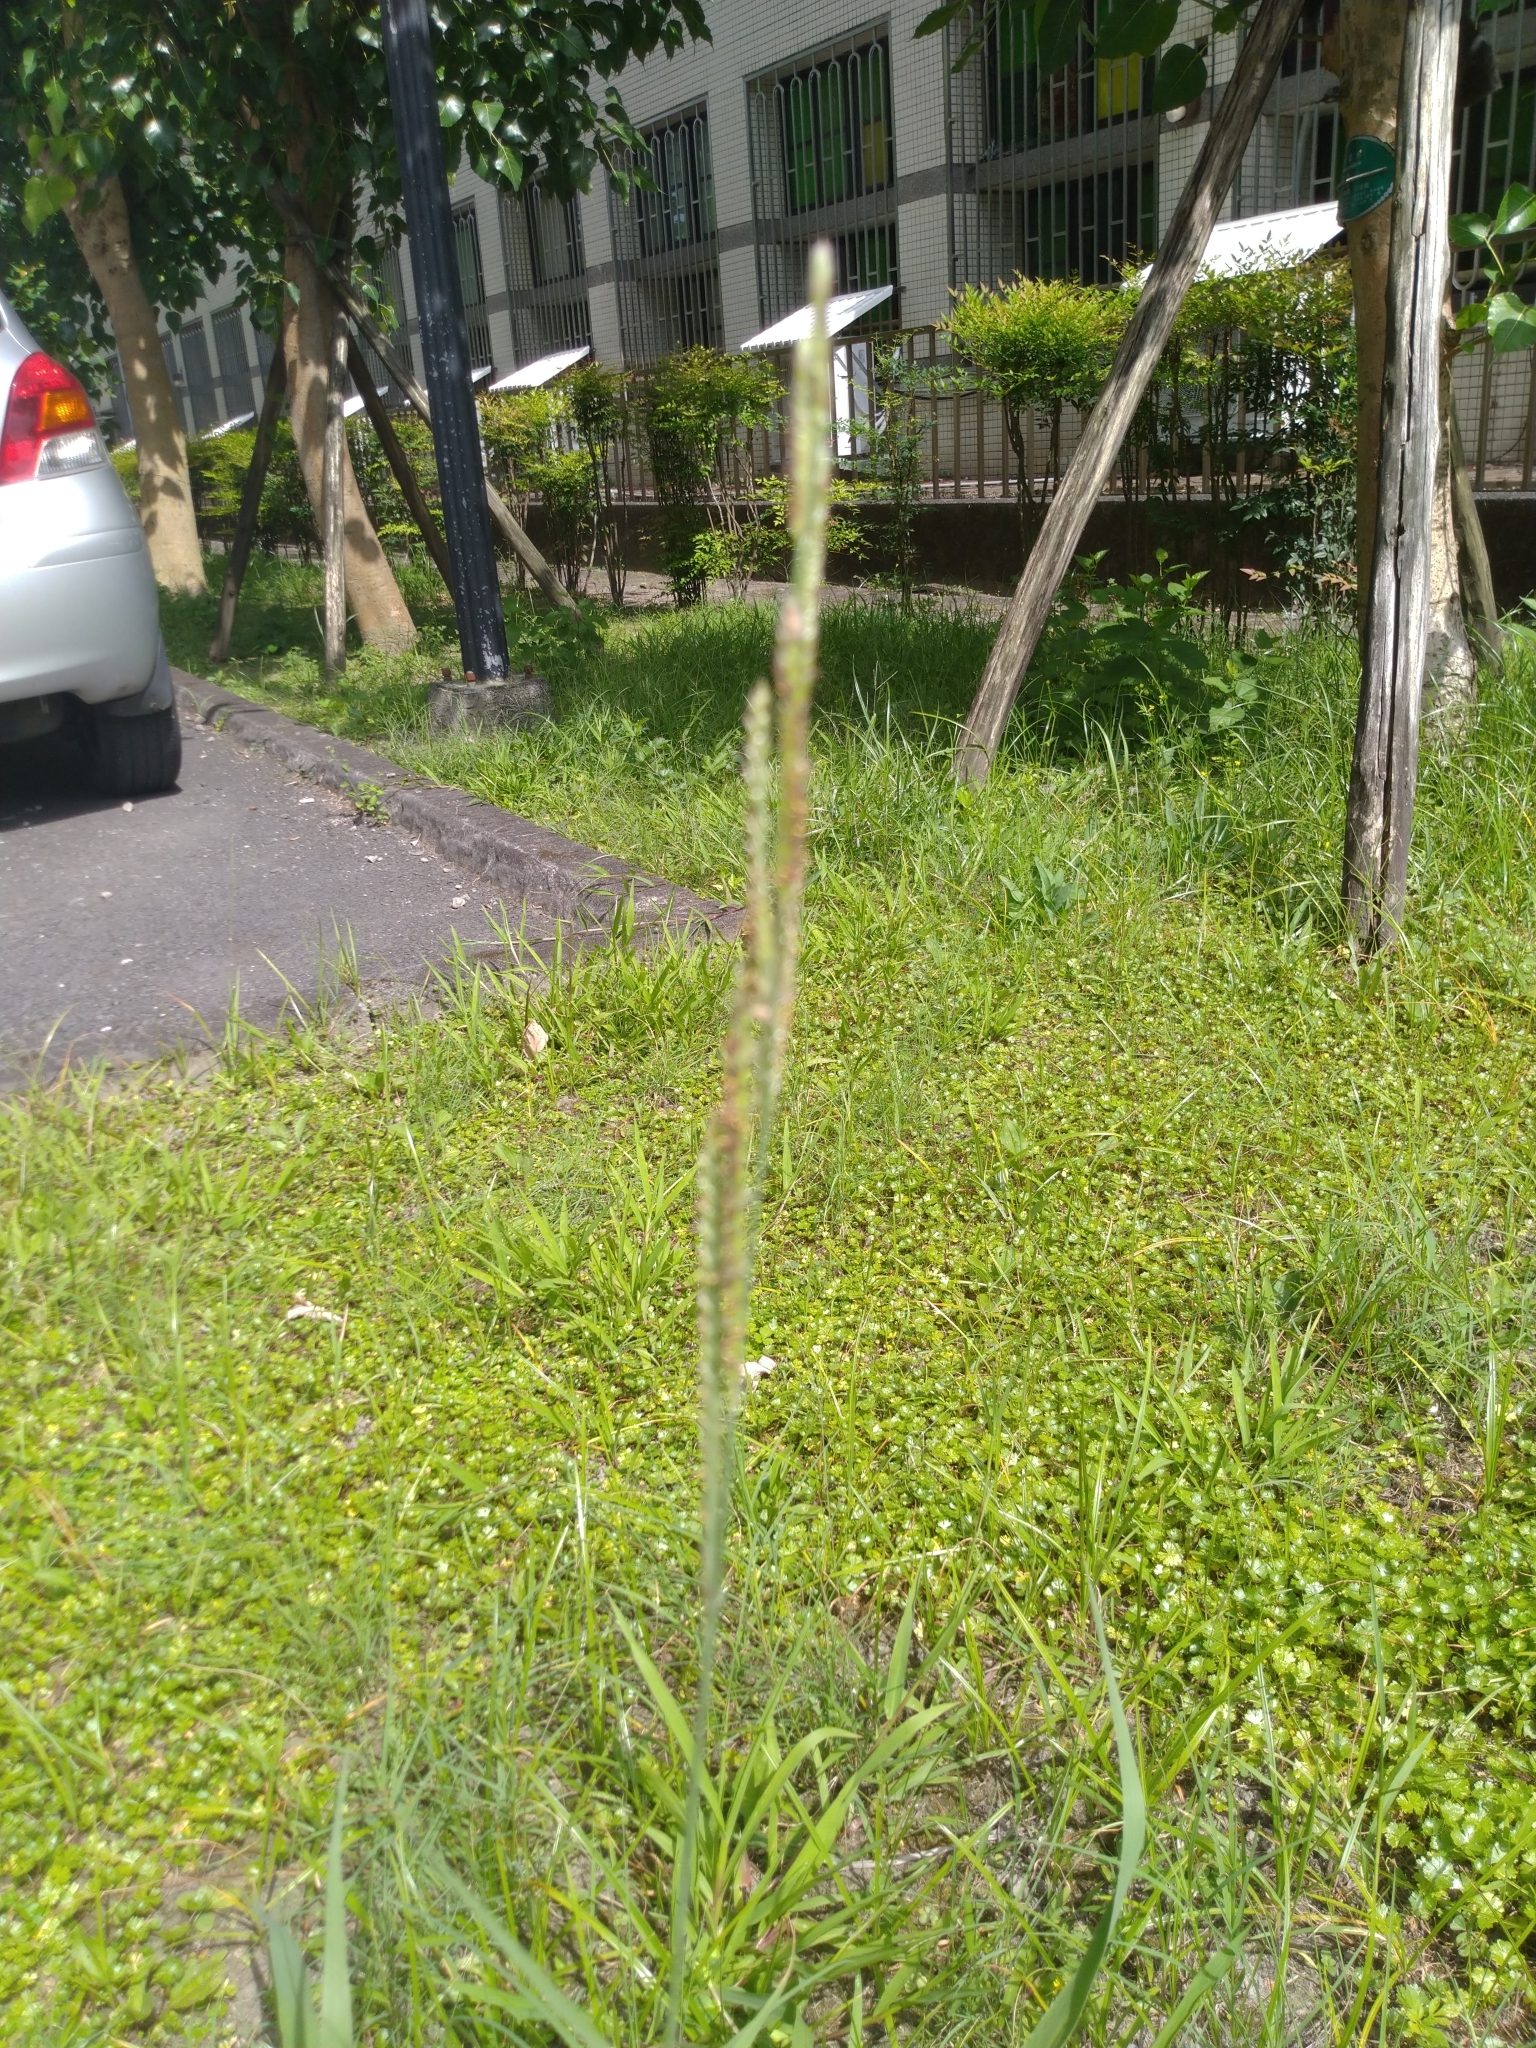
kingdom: Plantae
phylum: Tracheophyta
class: Liliopsida
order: Poales
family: Poaceae
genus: Paspalum
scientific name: Paspalum urvillei
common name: Vasey's grass
